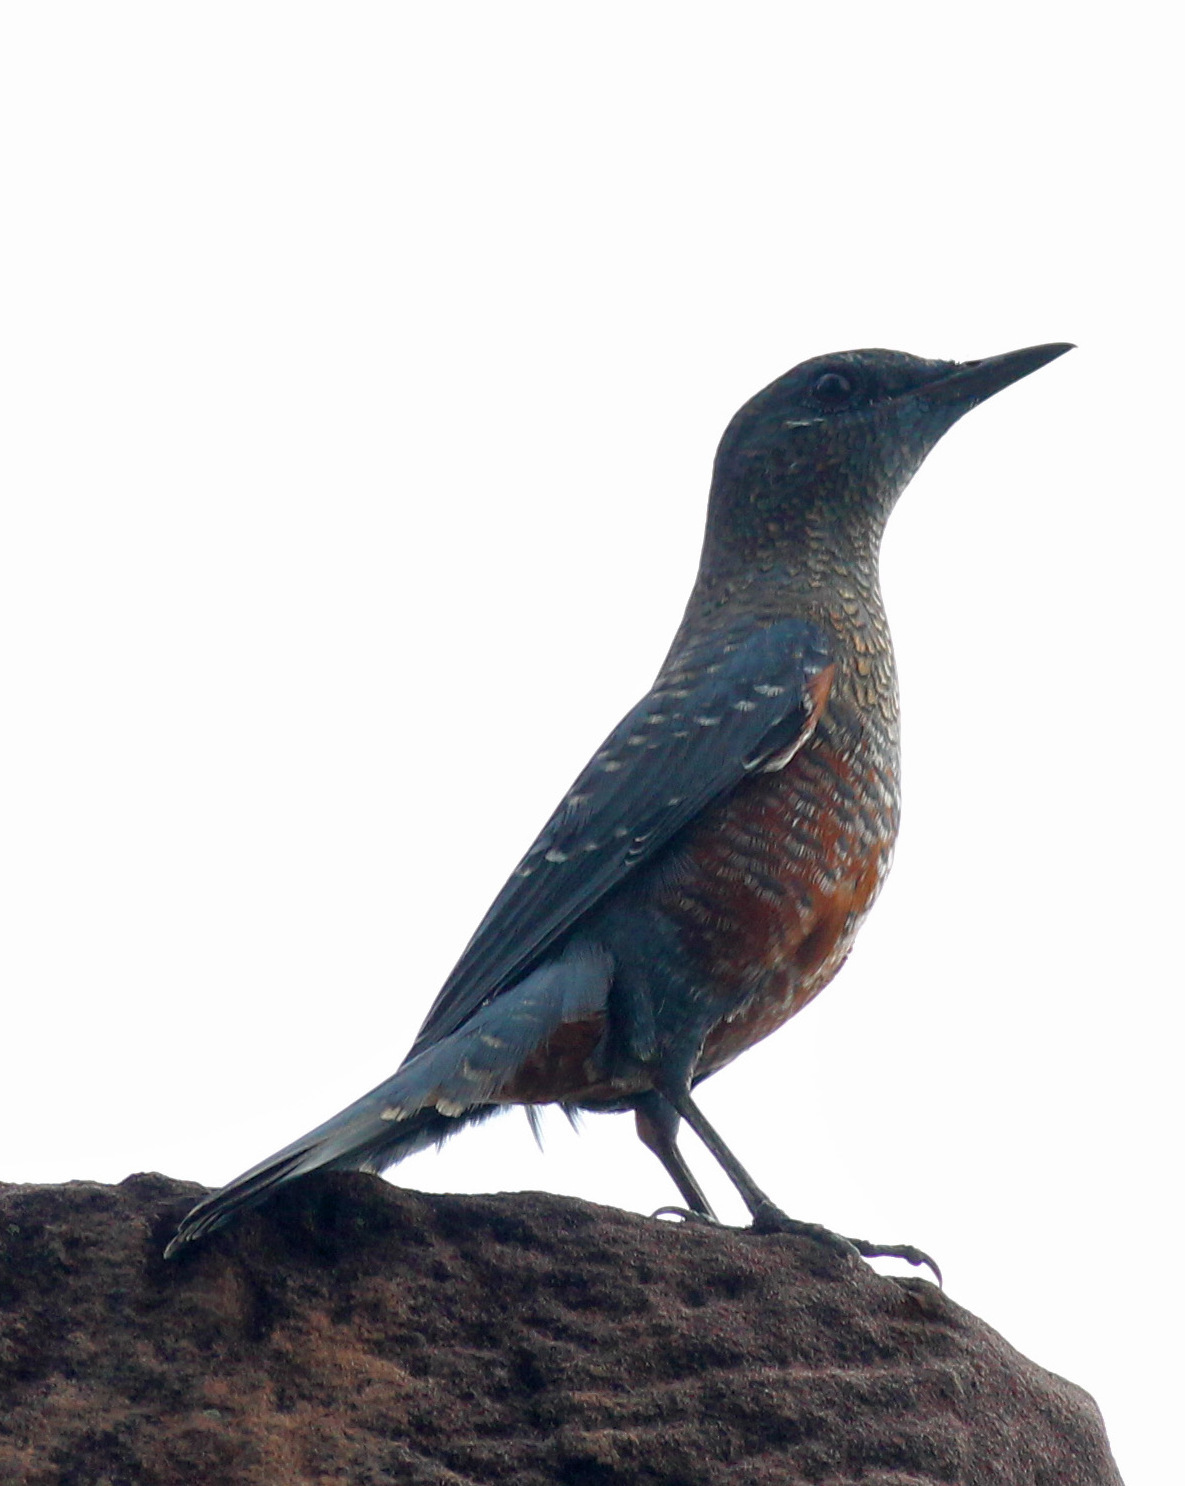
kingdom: Animalia
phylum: Chordata
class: Aves
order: Passeriformes
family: Muscicapidae
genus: Monticola
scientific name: Monticola solitarius
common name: Blue rock thrush
